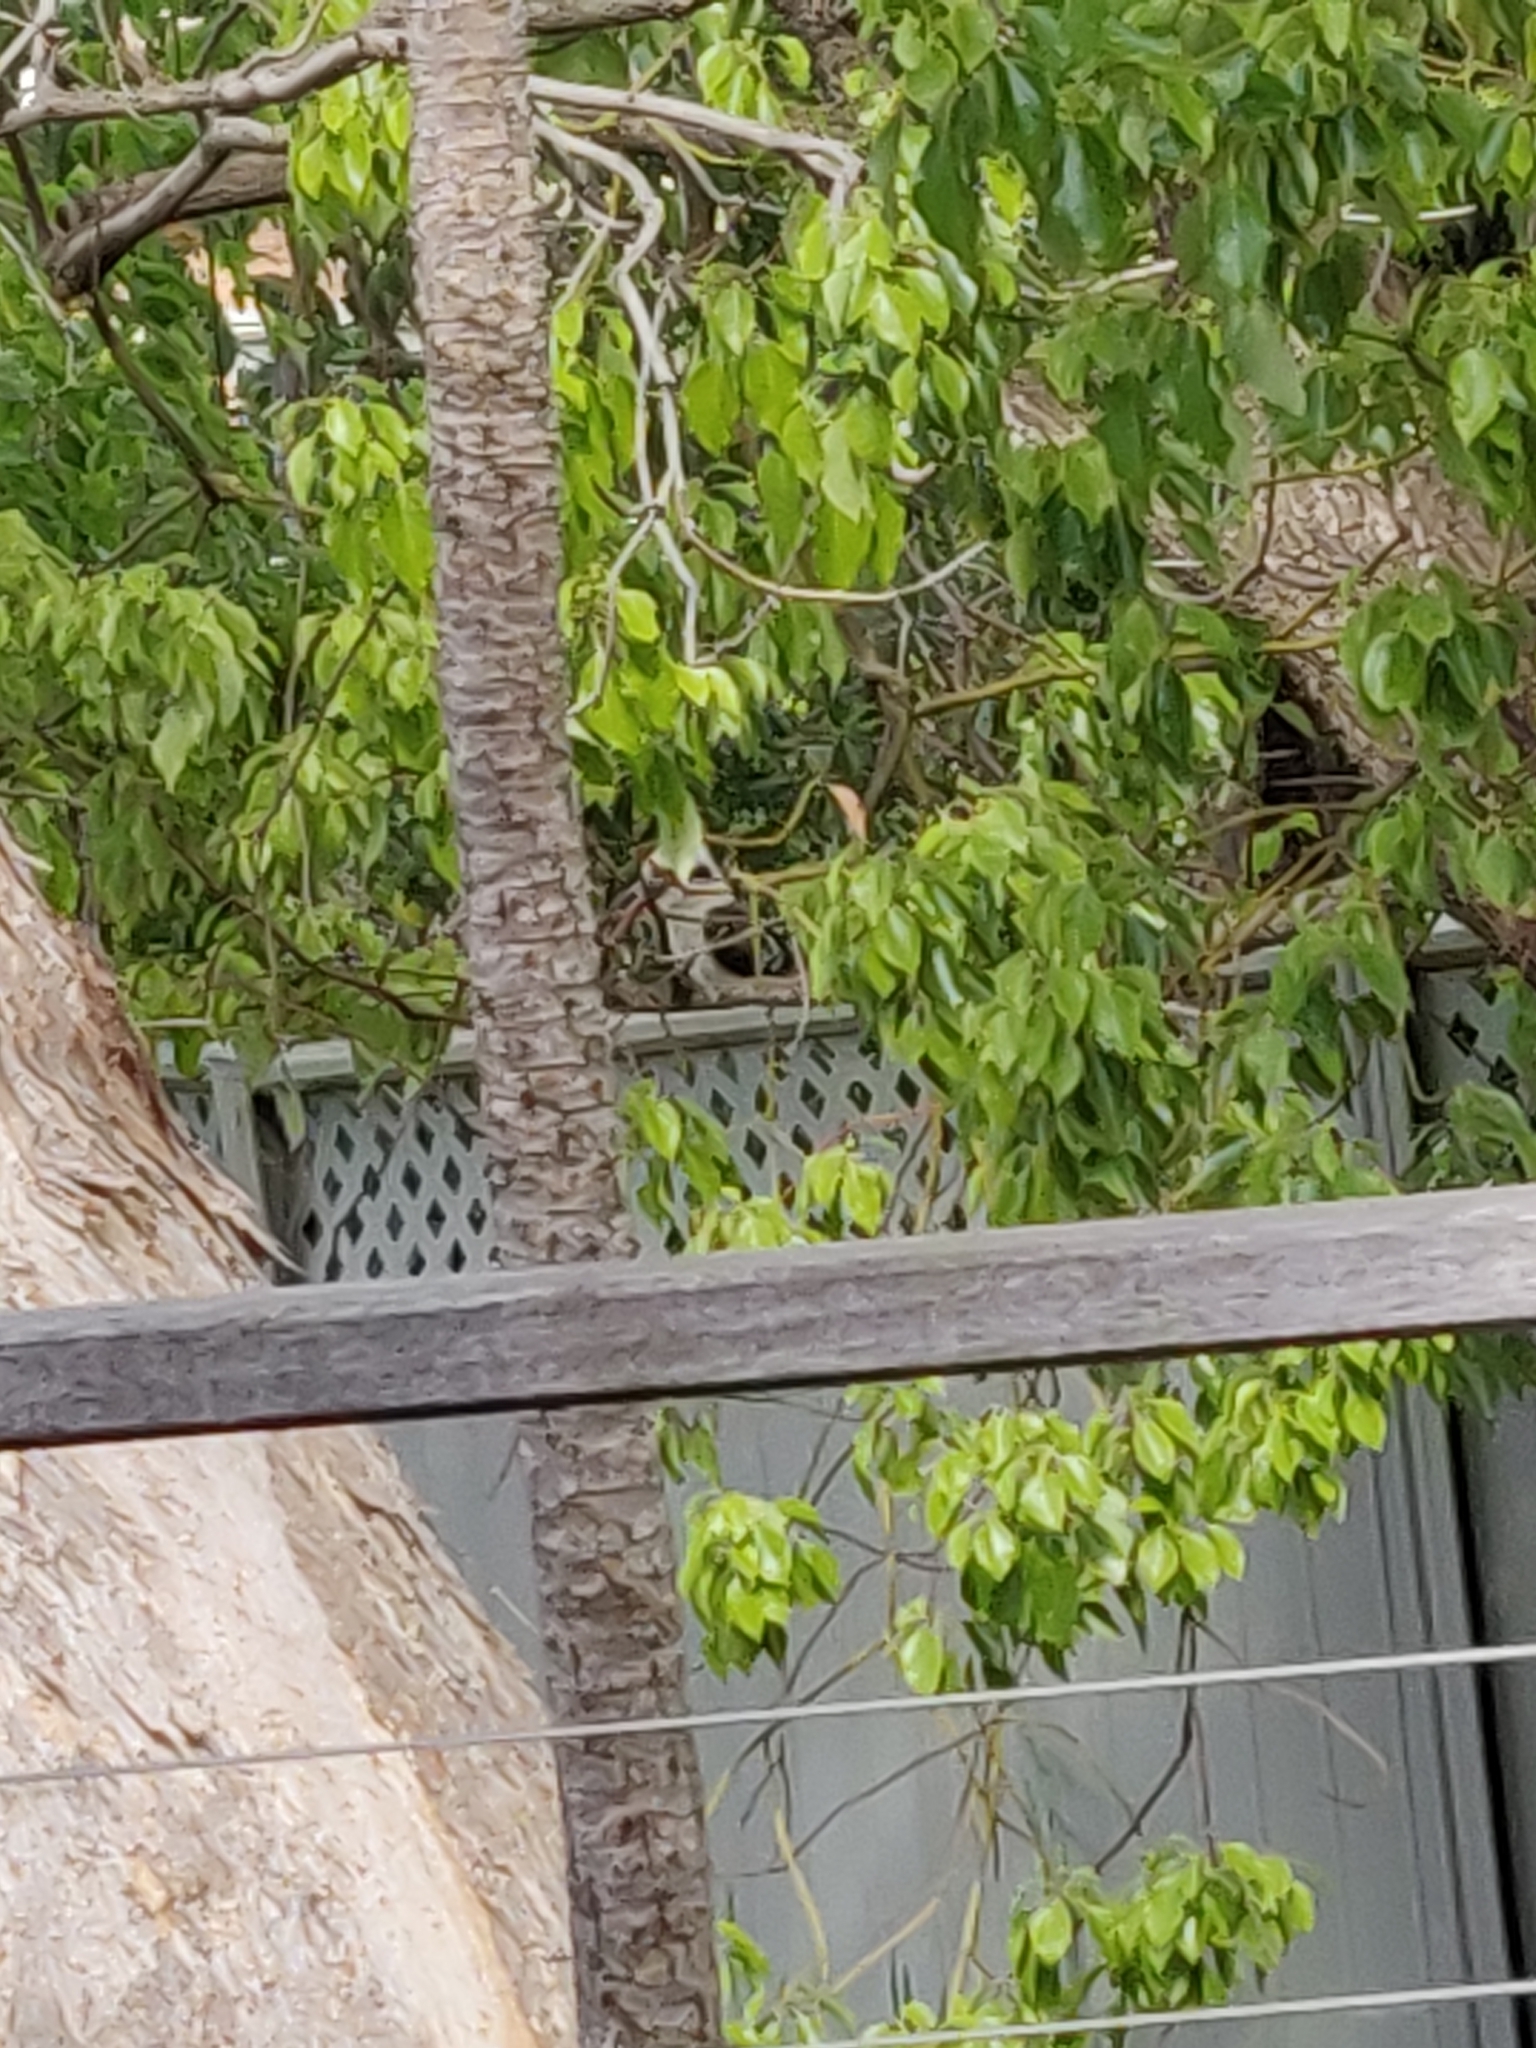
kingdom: Animalia
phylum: Chordata
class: Aves
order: Coraciiformes
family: Alcedinidae
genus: Dacelo
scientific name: Dacelo novaeguineae
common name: Laughing kookaburra
